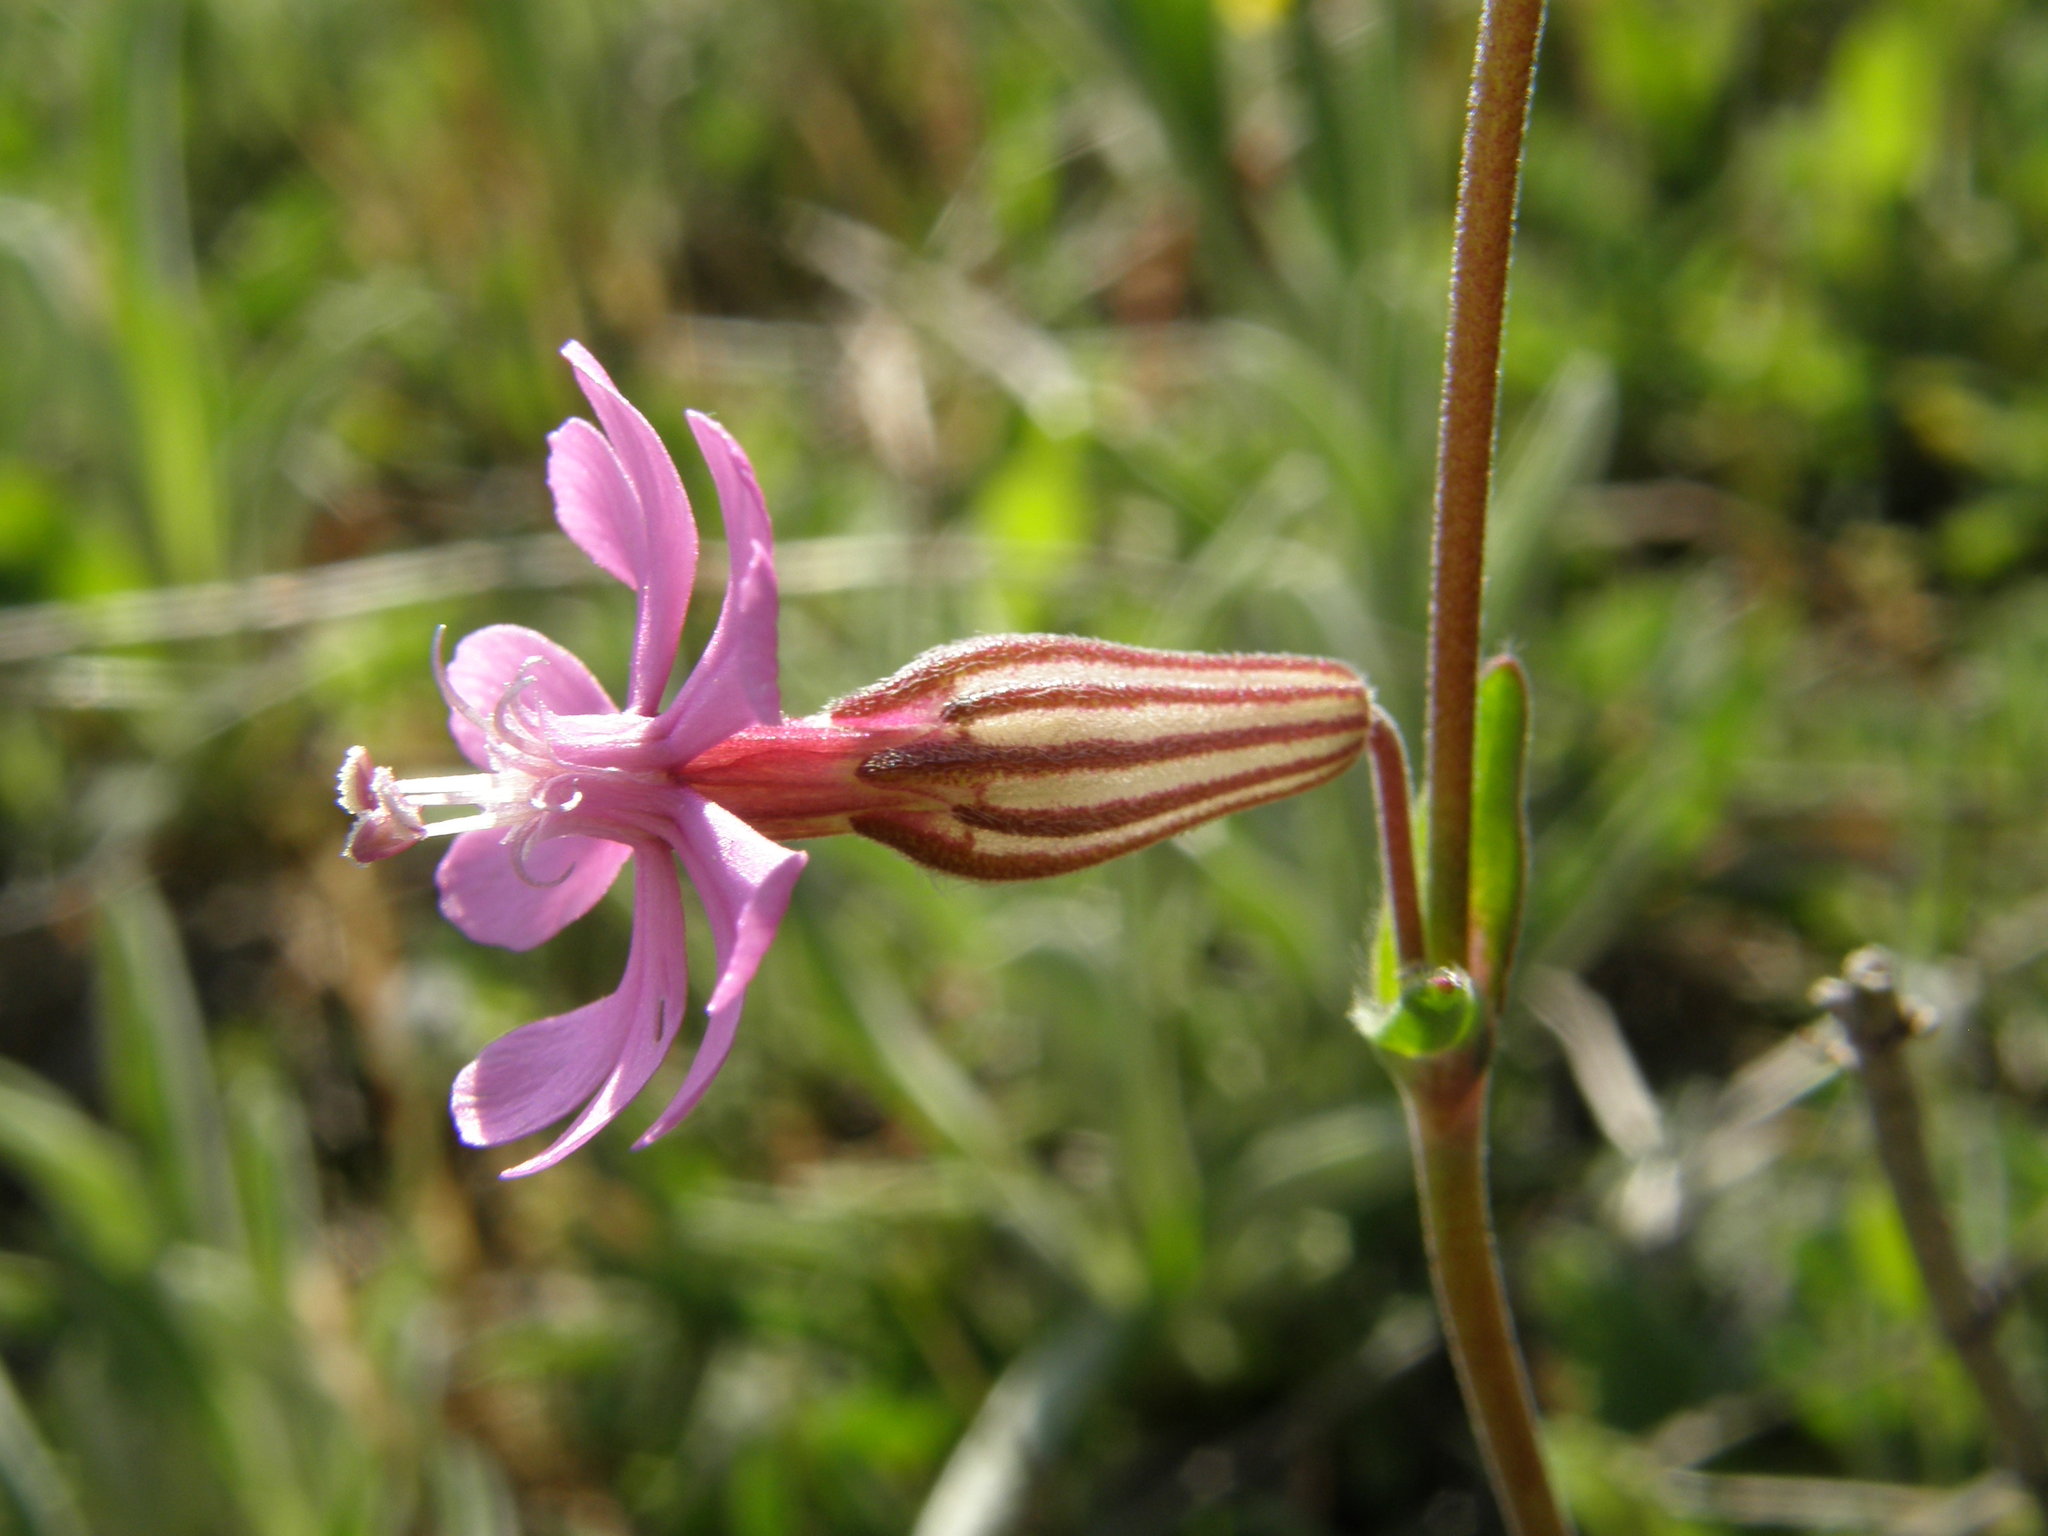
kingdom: Plantae
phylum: Tracheophyta
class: Magnoliopsida
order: Caryophyllales
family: Caryophyllaceae
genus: Silene
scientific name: Silene colorata
